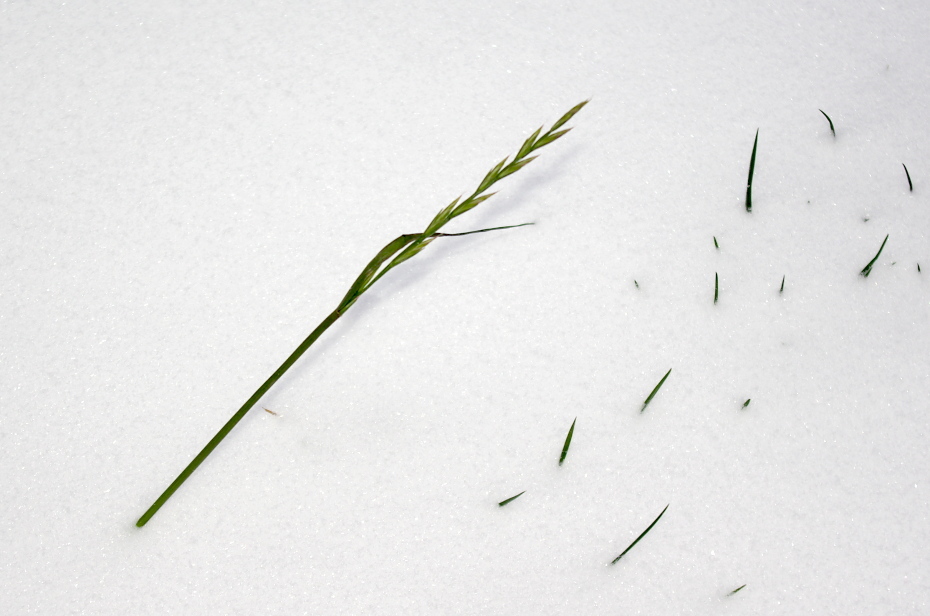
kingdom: Plantae
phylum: Tracheophyta
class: Liliopsida
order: Poales
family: Poaceae
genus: Lolium
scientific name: Lolium perenne
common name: Perennial ryegrass
